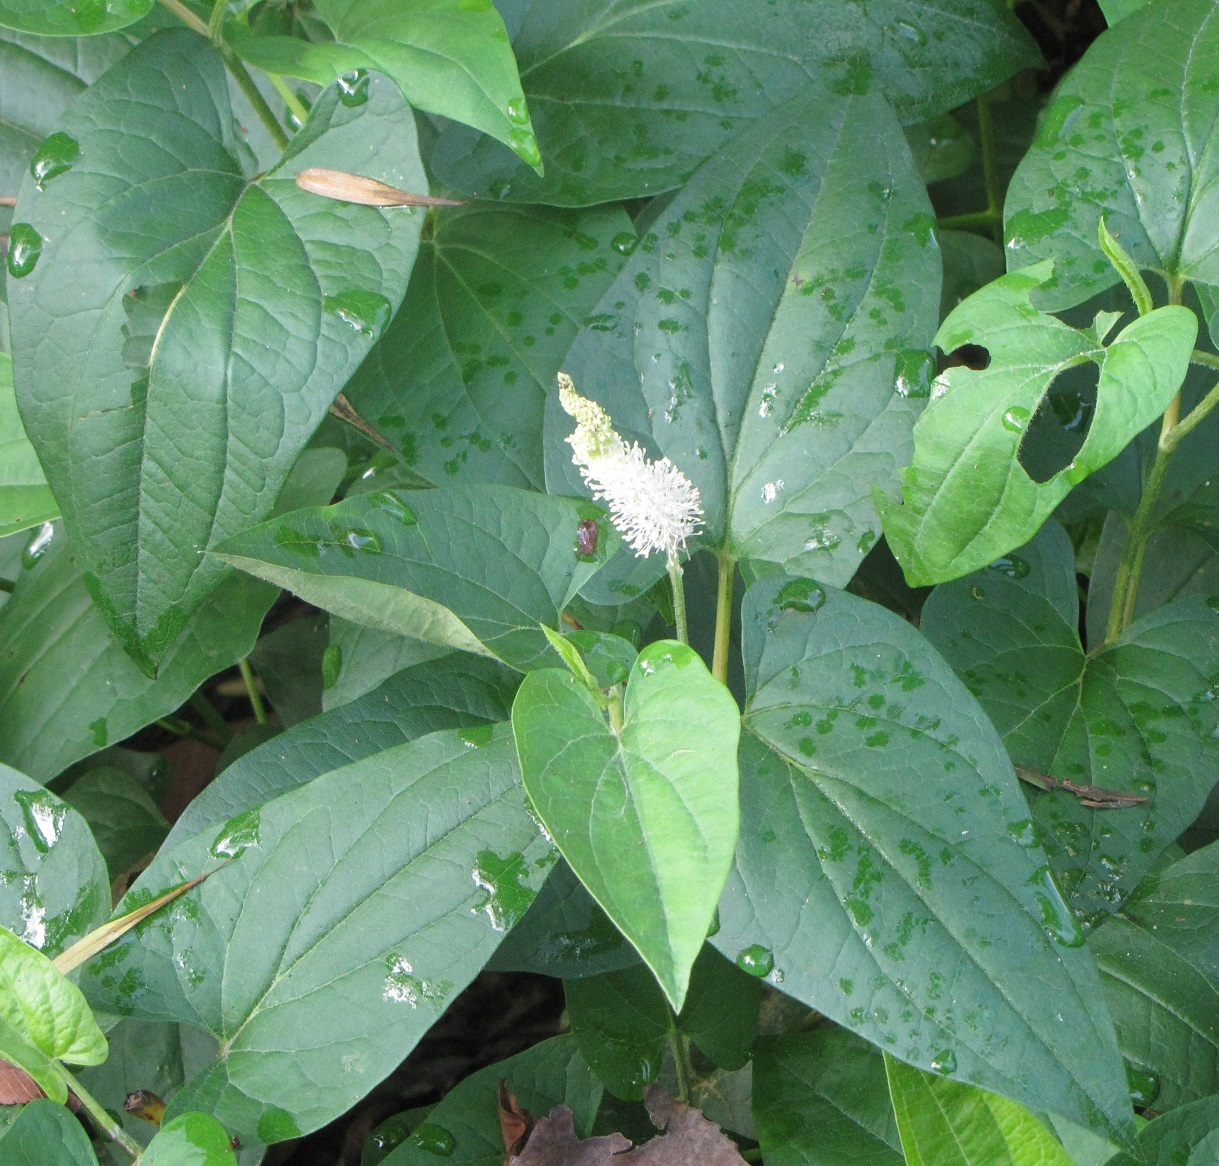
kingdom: Plantae
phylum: Tracheophyta
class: Magnoliopsida
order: Piperales
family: Saururaceae
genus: Saururus
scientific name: Saururus cernuus
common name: Lizard's-tail
